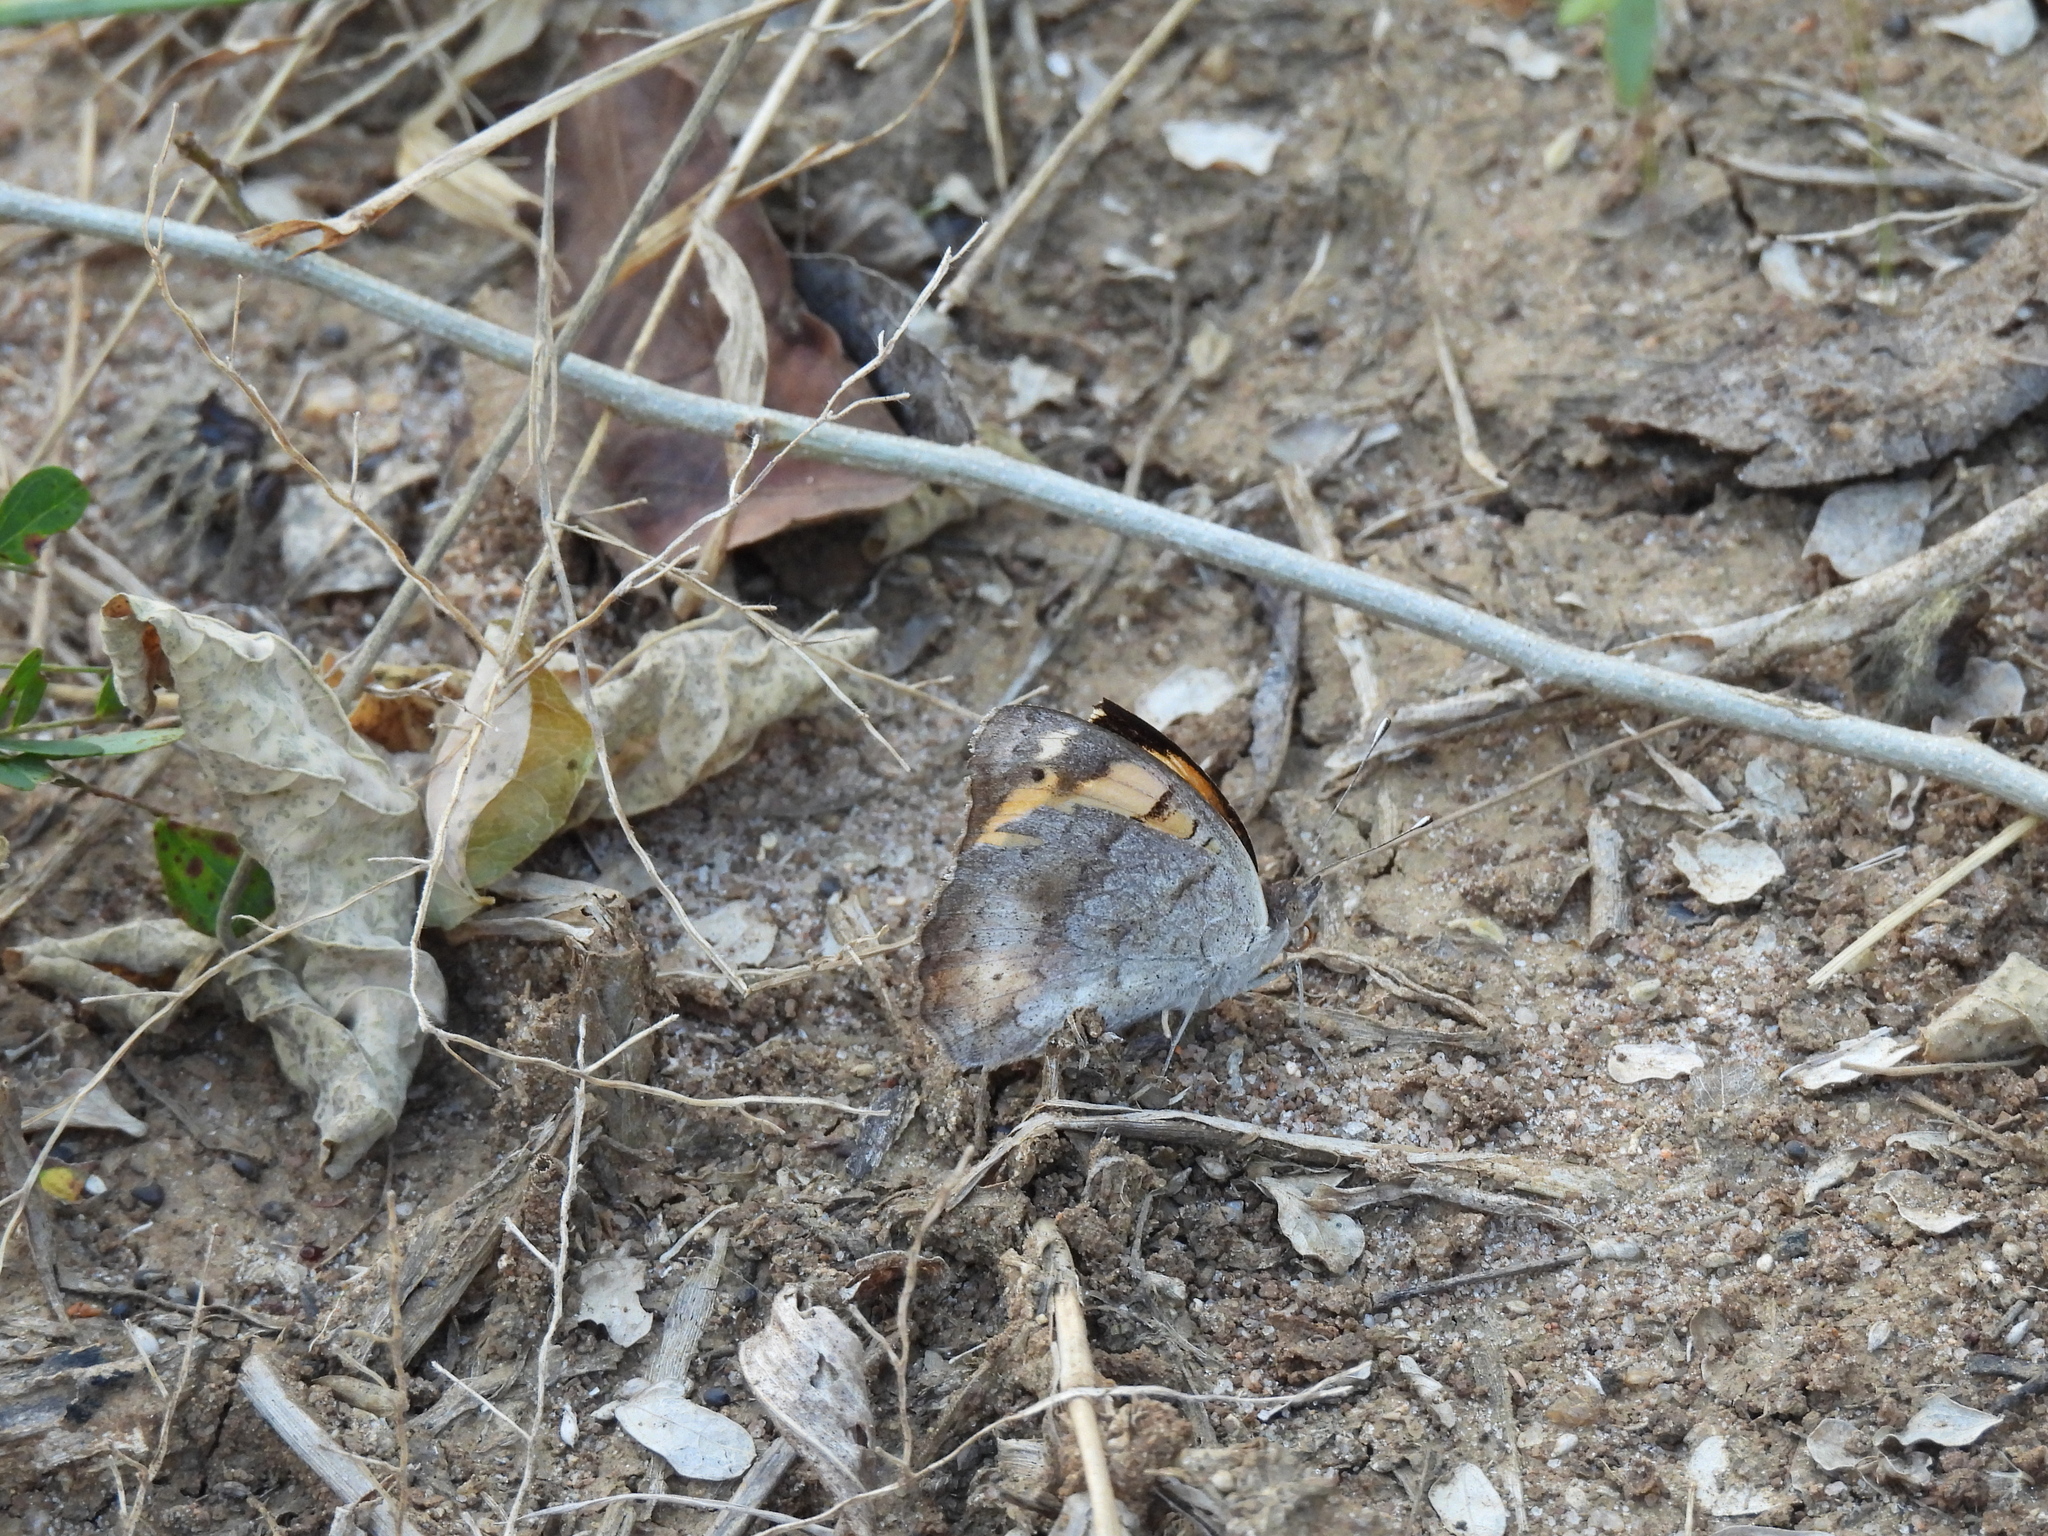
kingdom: Animalia
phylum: Arthropoda
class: Insecta
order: Lepidoptera
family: Nymphalidae
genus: Junonia
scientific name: Junonia hierta
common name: Yellow pansy
